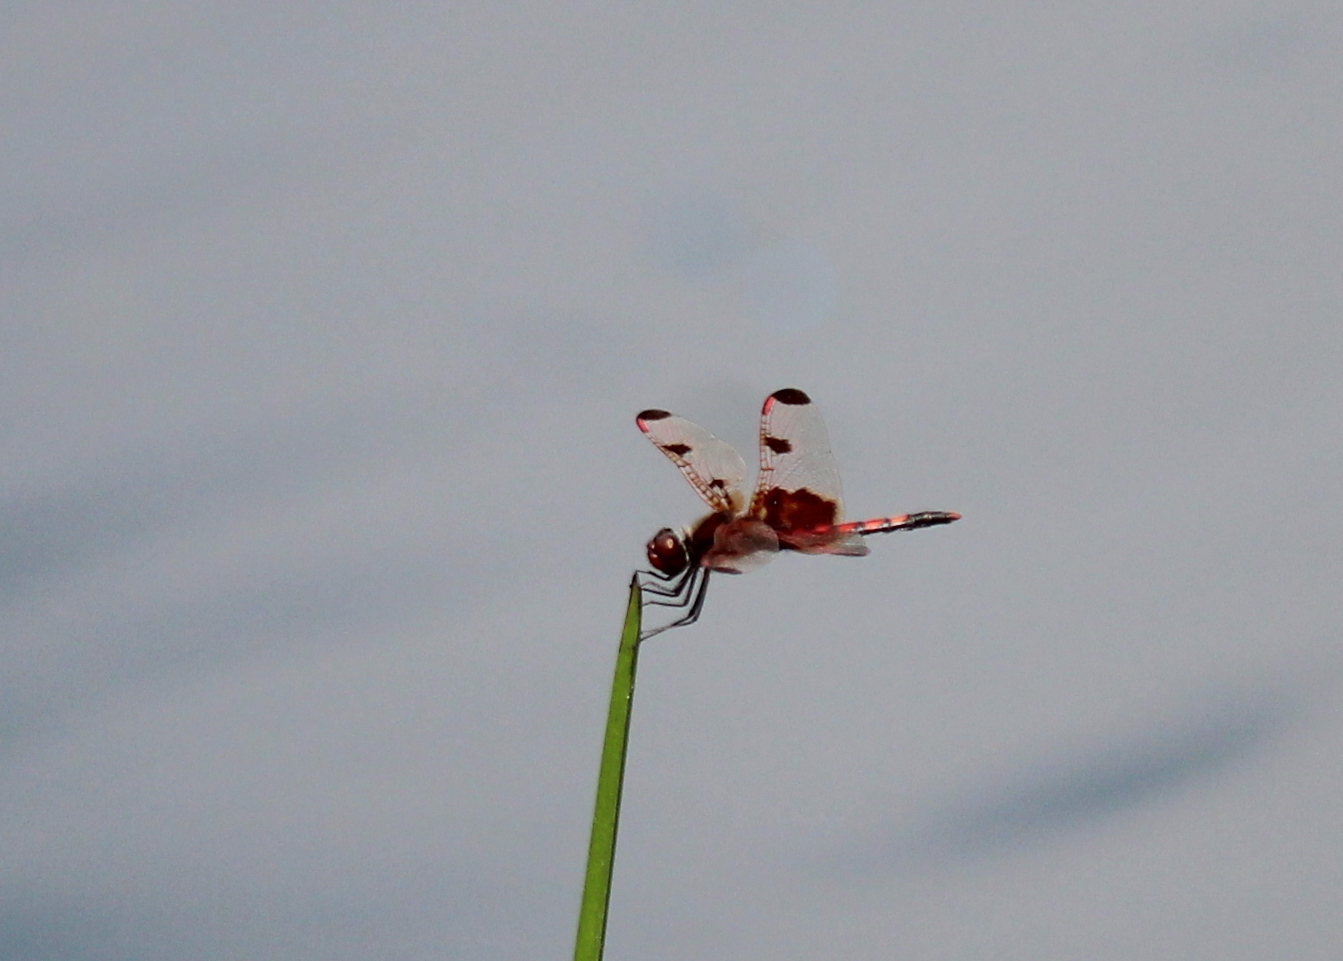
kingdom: Animalia
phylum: Arthropoda
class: Insecta
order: Odonata
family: Libellulidae
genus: Celithemis
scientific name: Celithemis elisa
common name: Calico pennant
